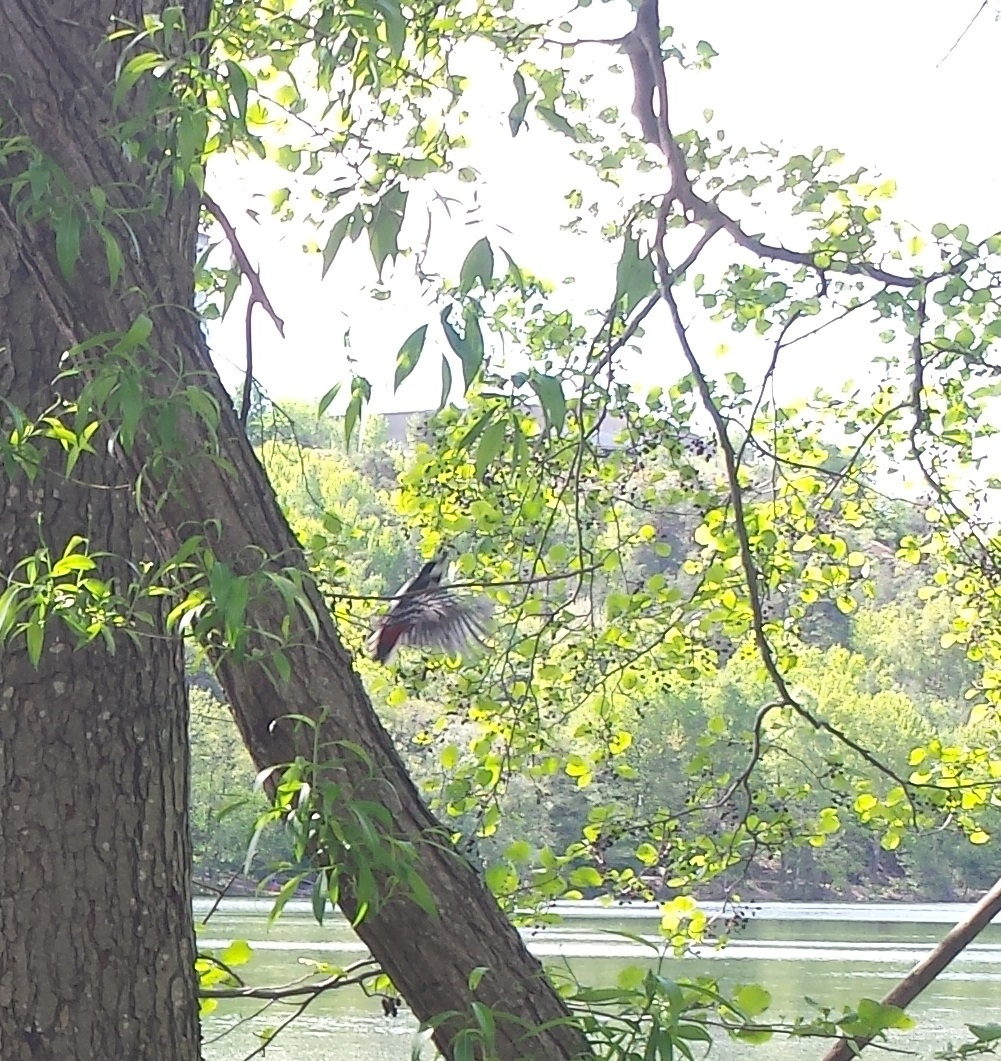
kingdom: Animalia
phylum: Chordata
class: Aves
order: Piciformes
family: Picidae
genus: Dendrocopos
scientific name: Dendrocopos major
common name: Great spotted woodpecker
